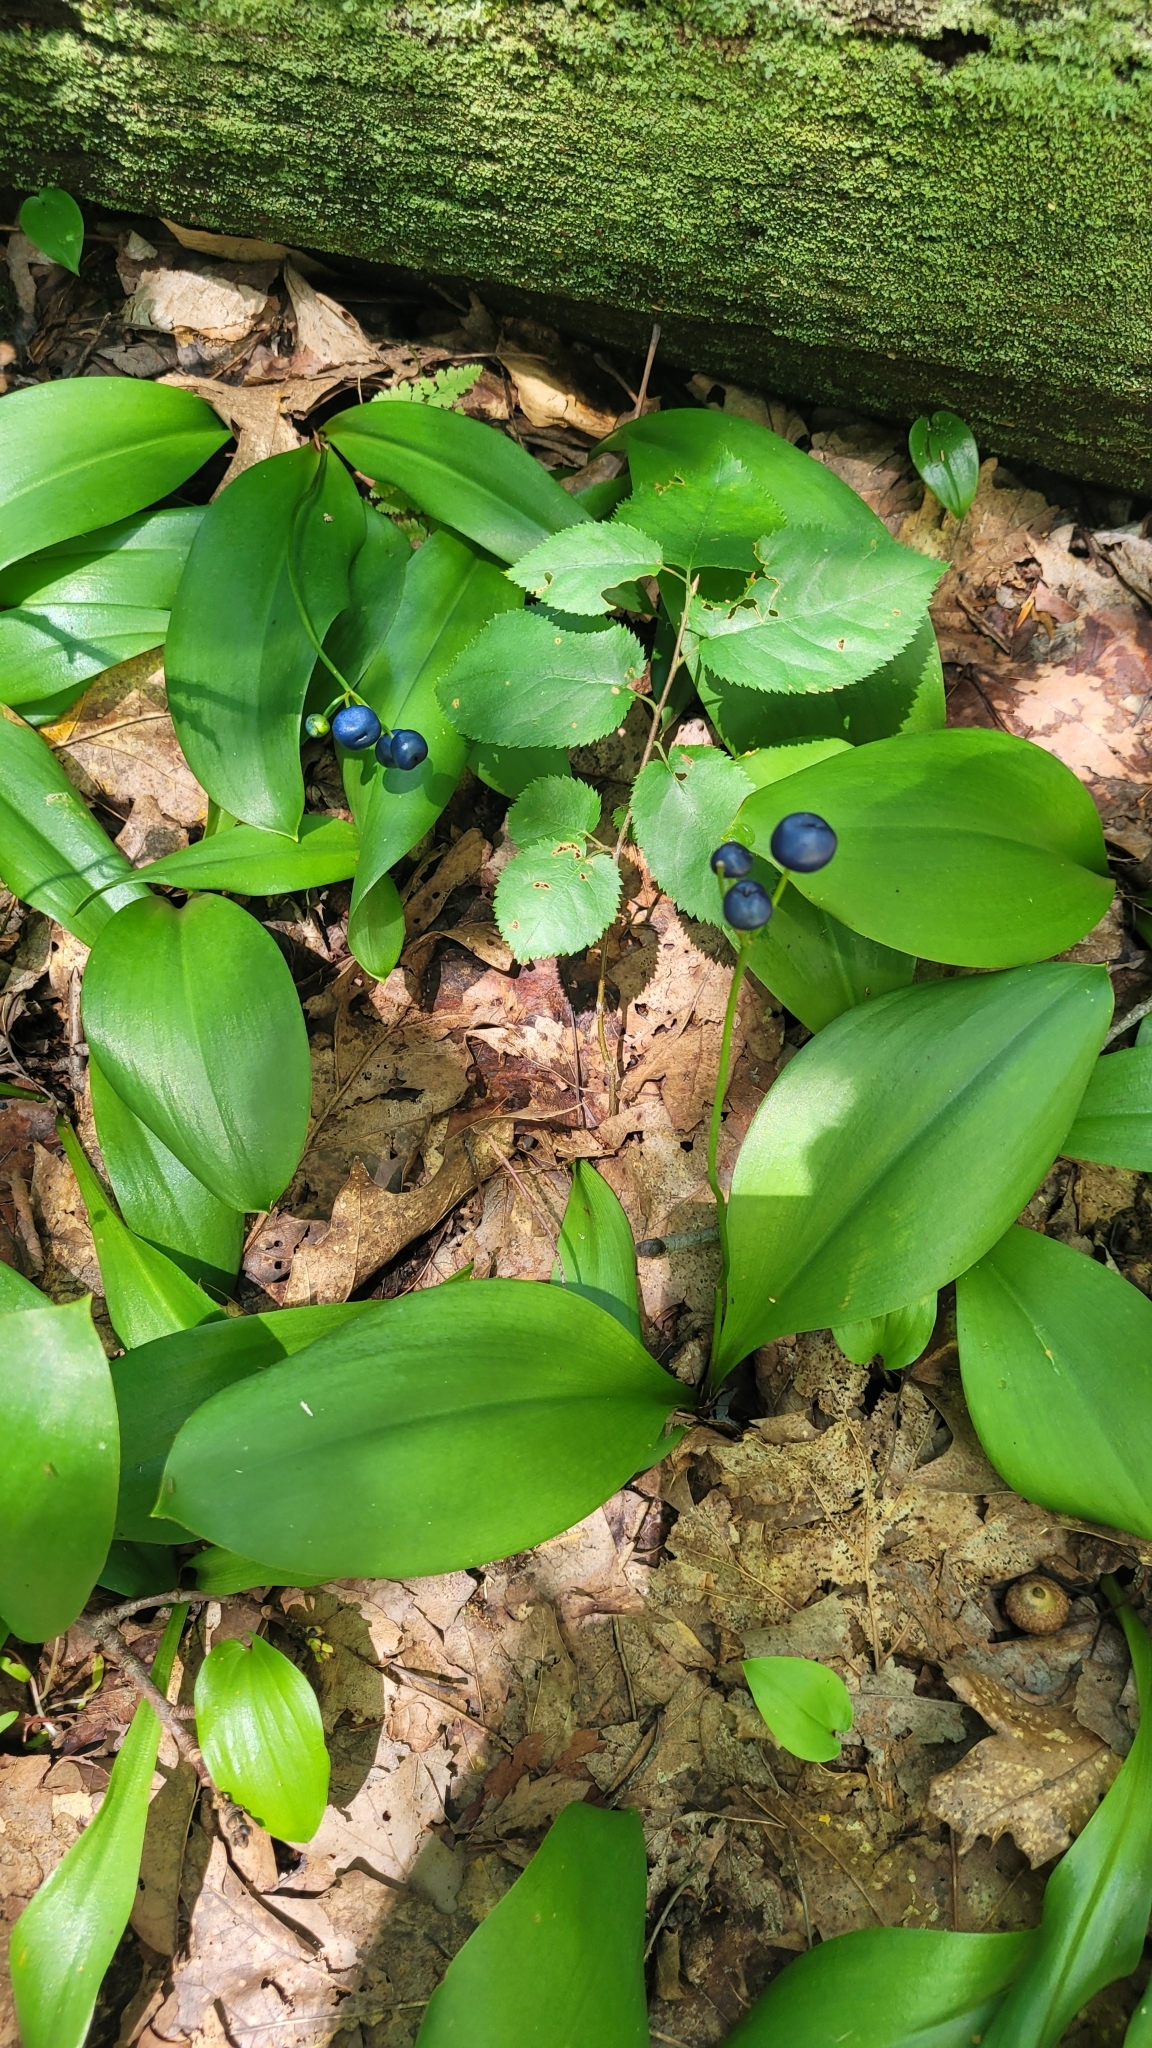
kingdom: Plantae
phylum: Tracheophyta
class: Liliopsida
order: Liliales
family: Liliaceae
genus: Clintonia
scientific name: Clintonia borealis
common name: Yellow clintonia
